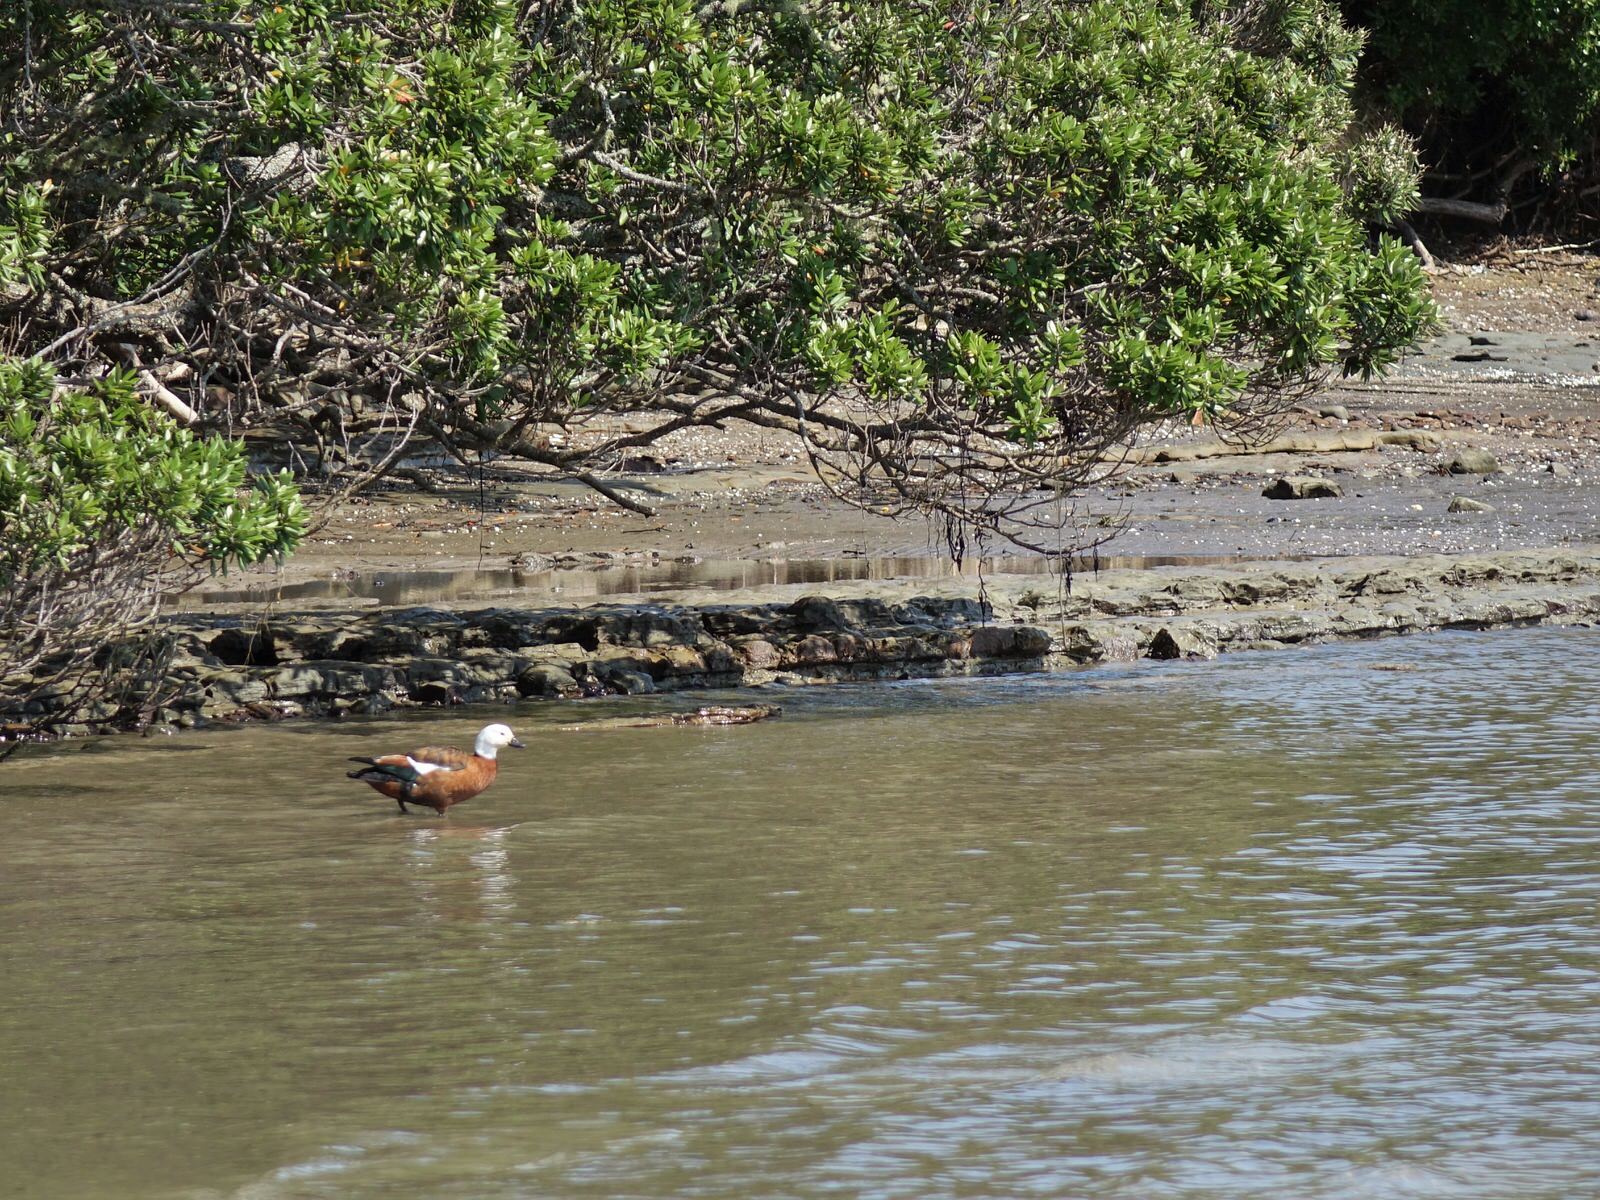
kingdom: Animalia
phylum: Chordata
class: Aves
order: Anseriformes
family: Anatidae
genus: Tadorna
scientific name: Tadorna variegata
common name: Paradise shelduck
